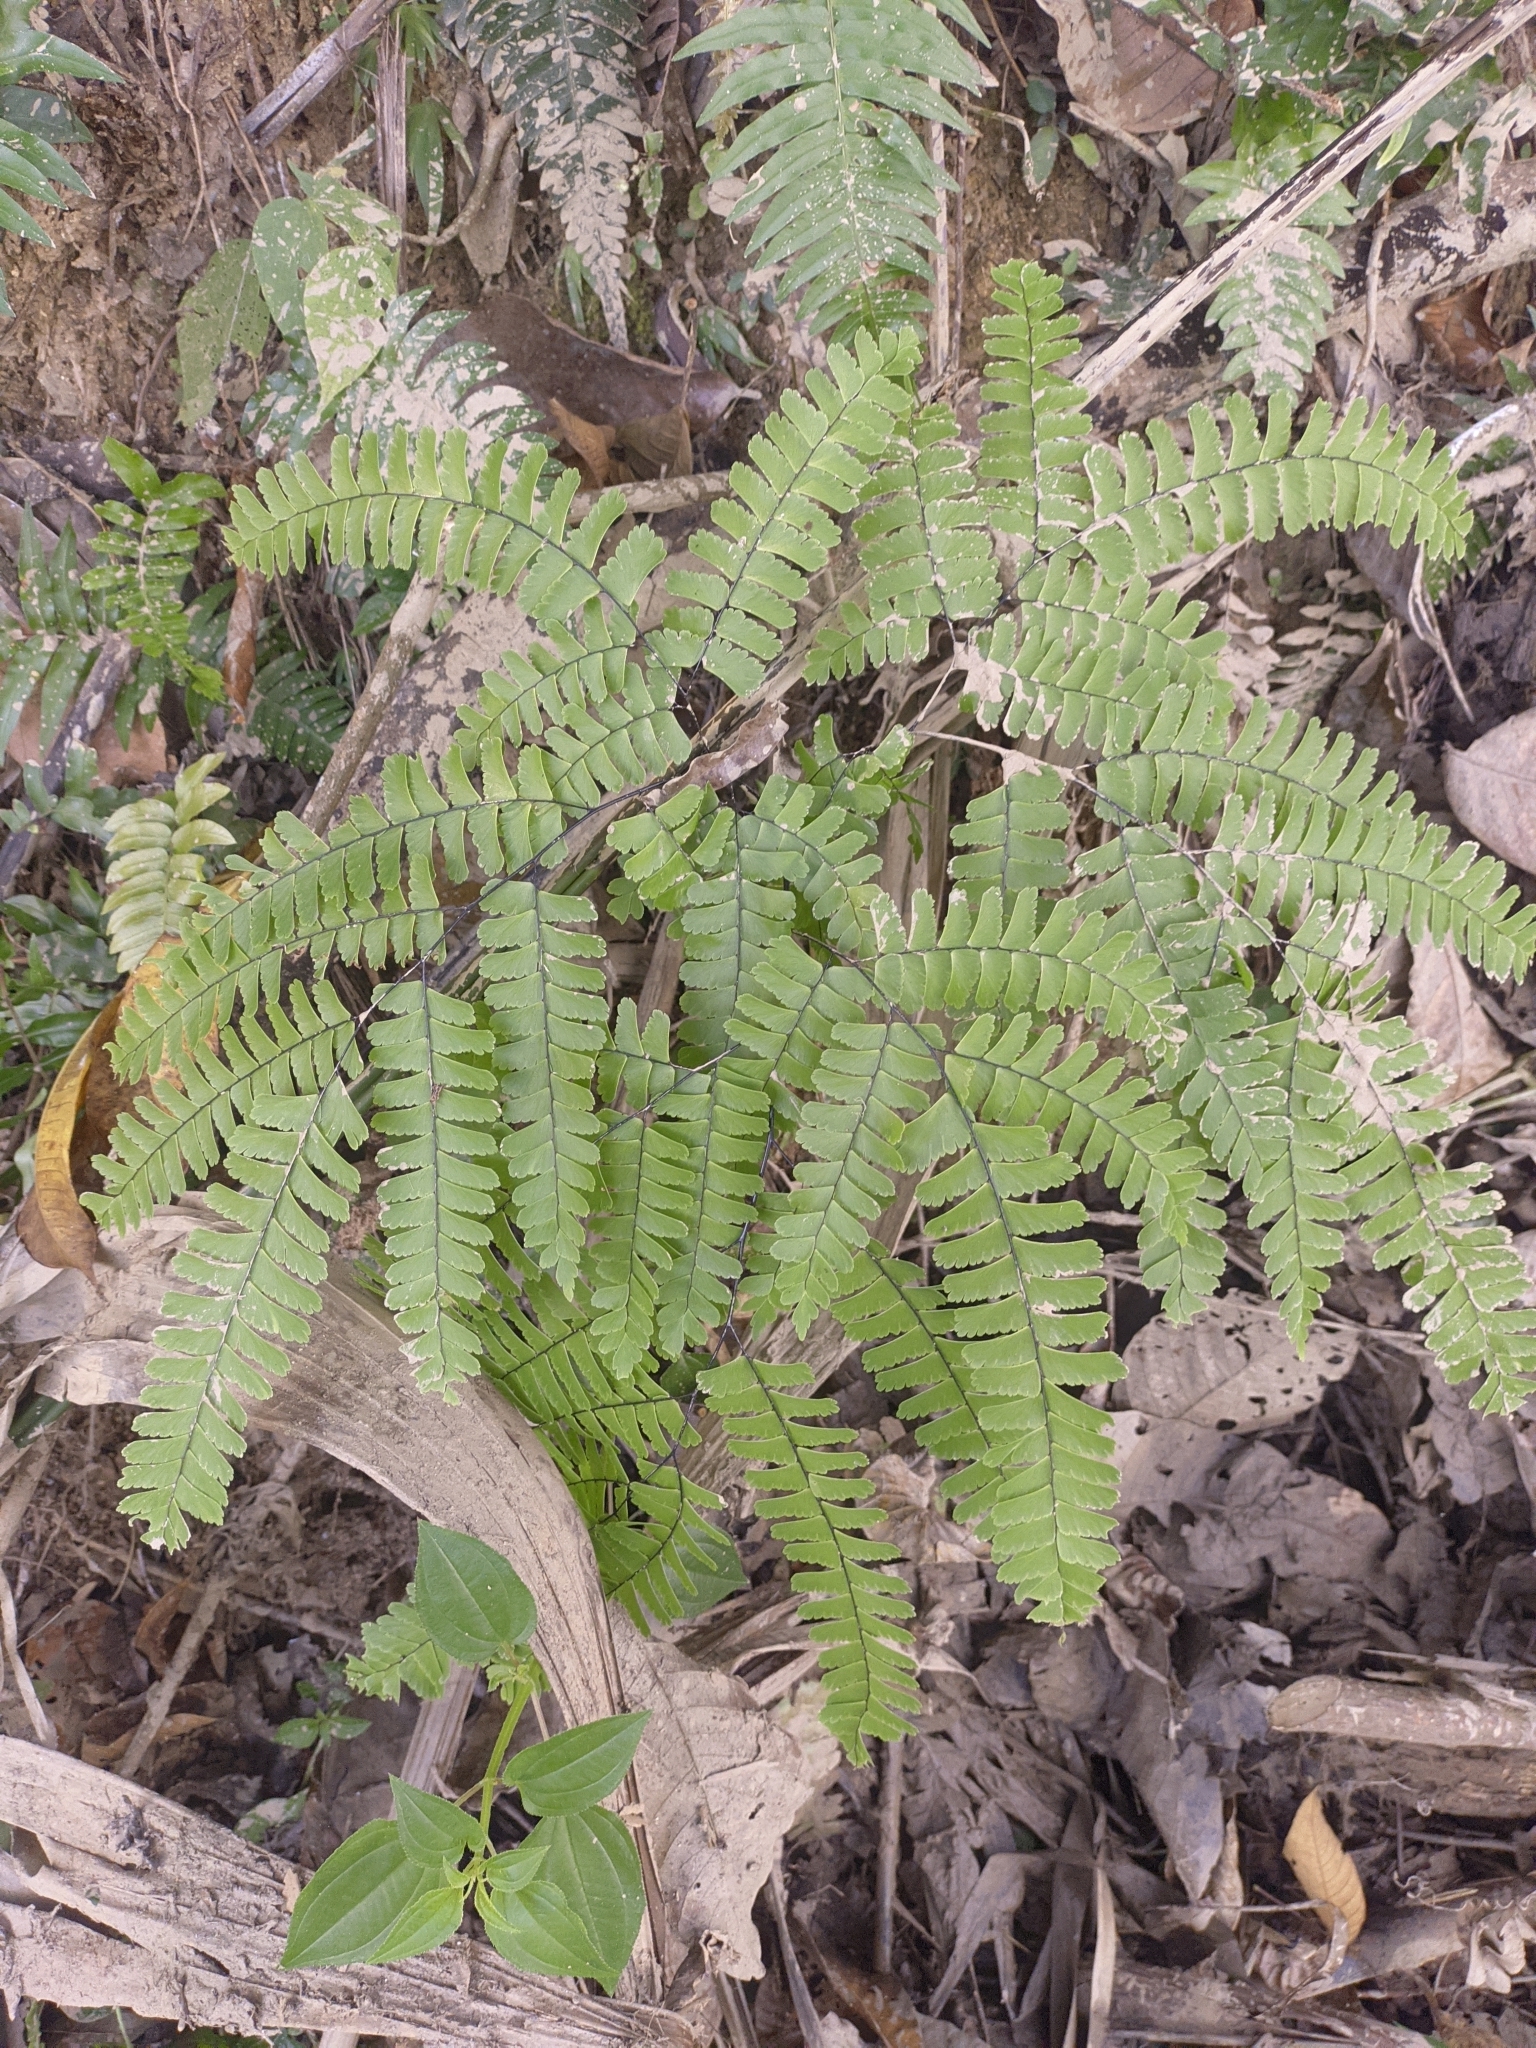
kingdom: Plantae
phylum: Tracheophyta
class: Polypodiopsida
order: Polypodiales
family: Pteridaceae
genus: Adiantum
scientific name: Adiantum polyphyllum
